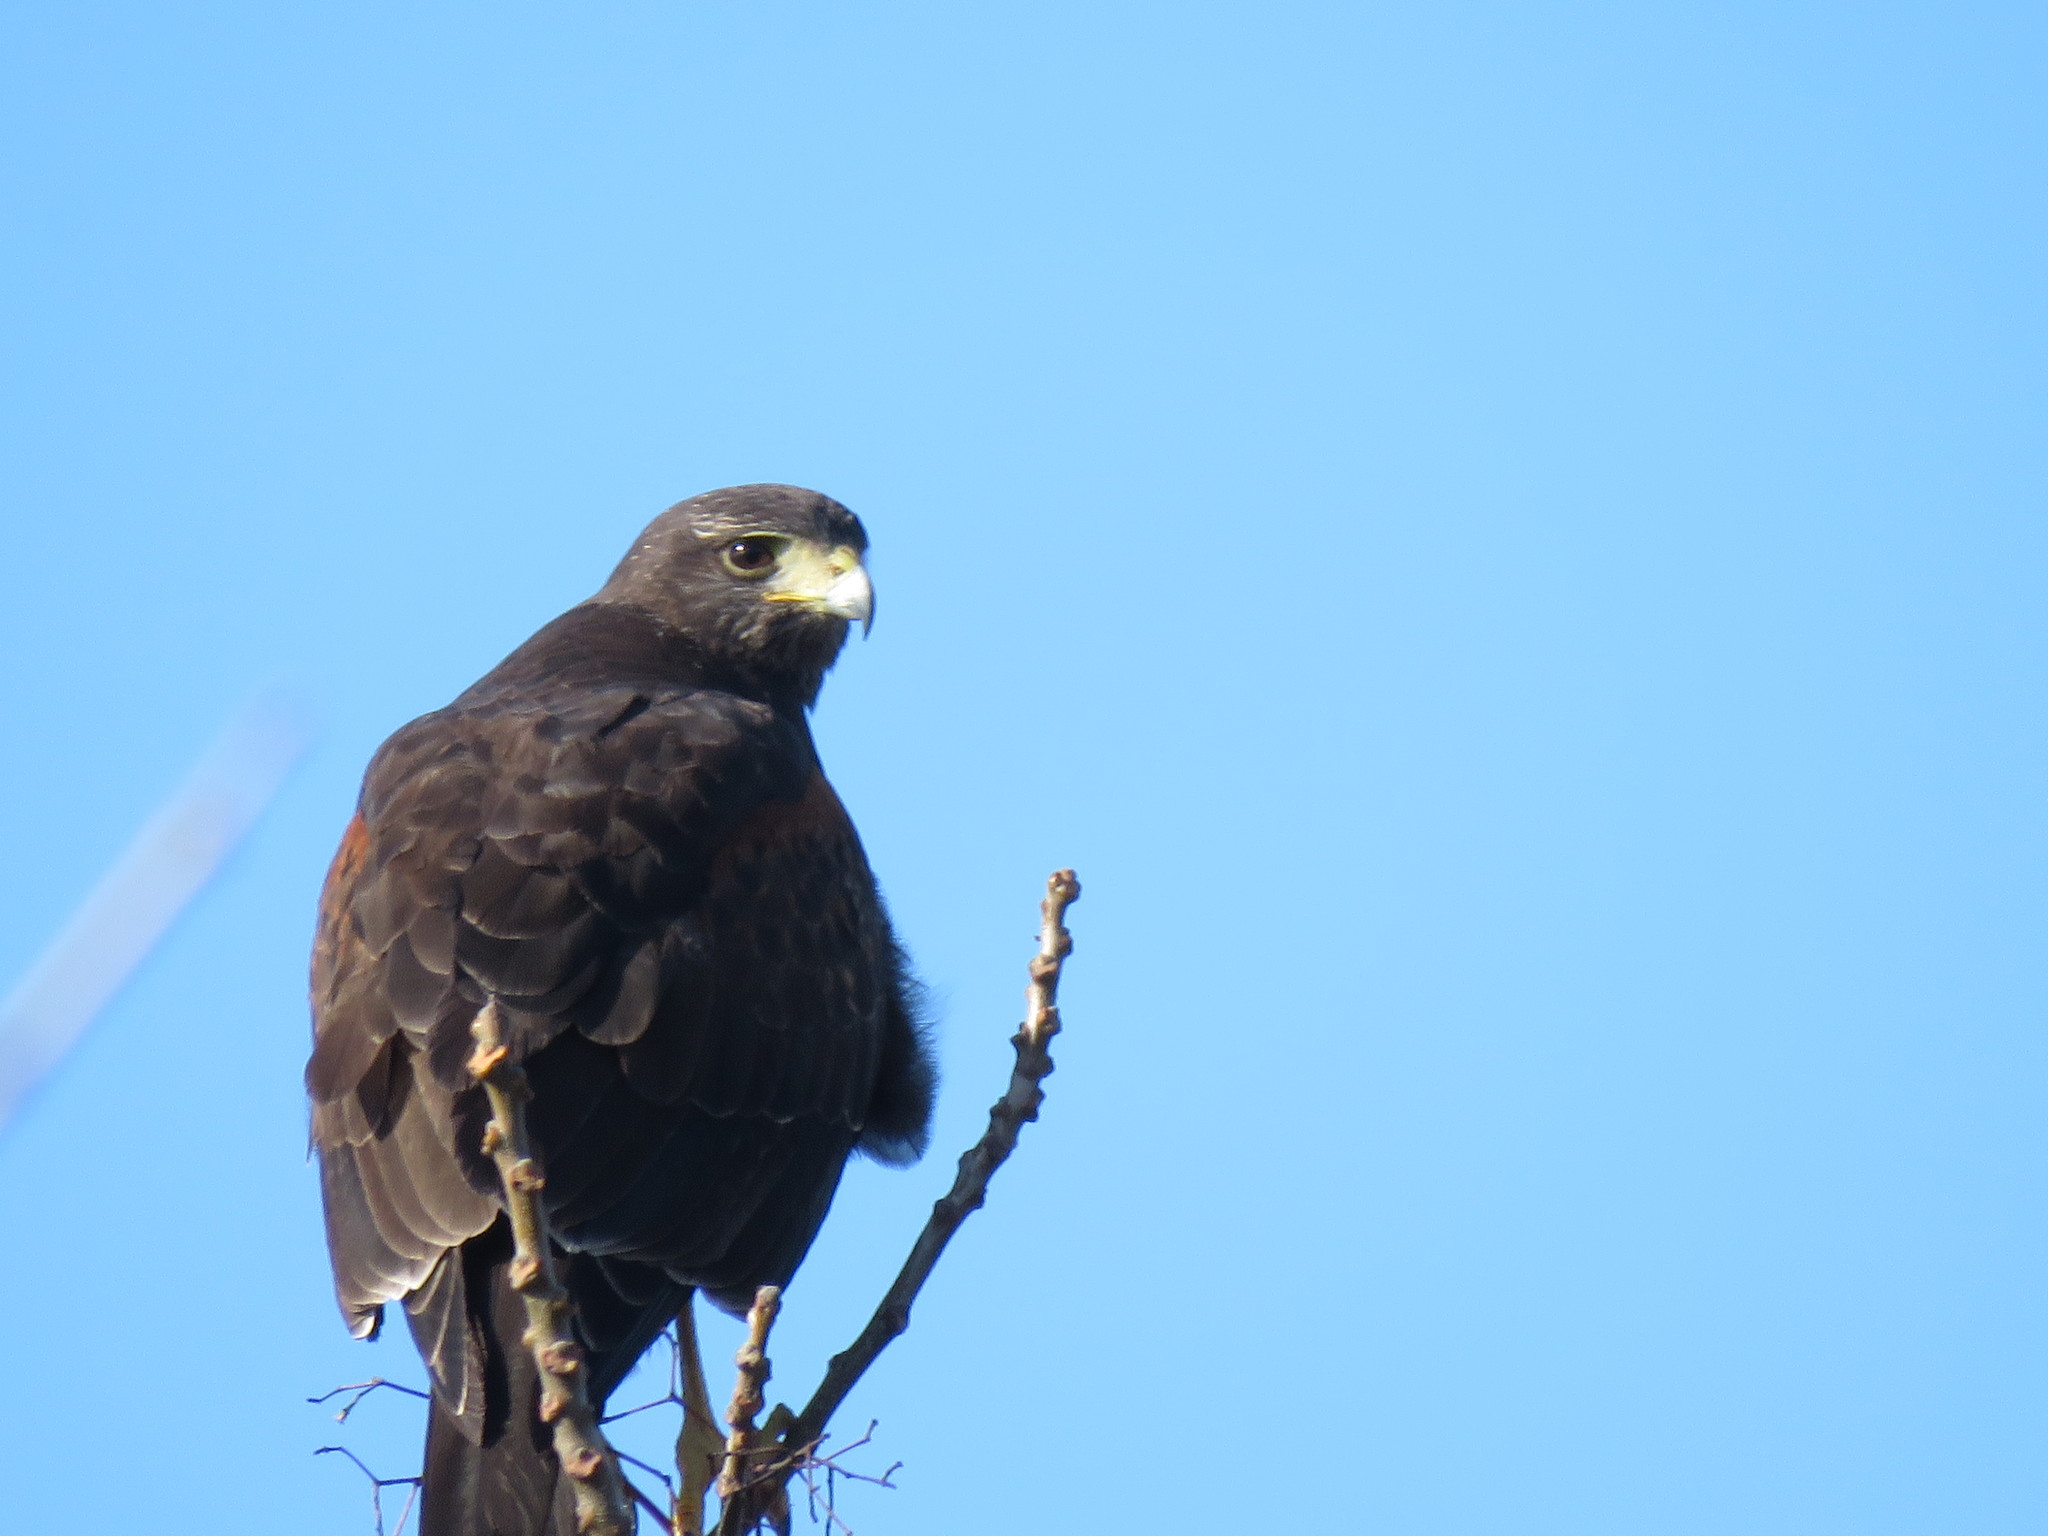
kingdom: Animalia
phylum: Chordata
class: Aves
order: Accipitriformes
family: Accipitridae
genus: Parabuteo
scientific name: Parabuteo unicinctus
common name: Harris's hawk
